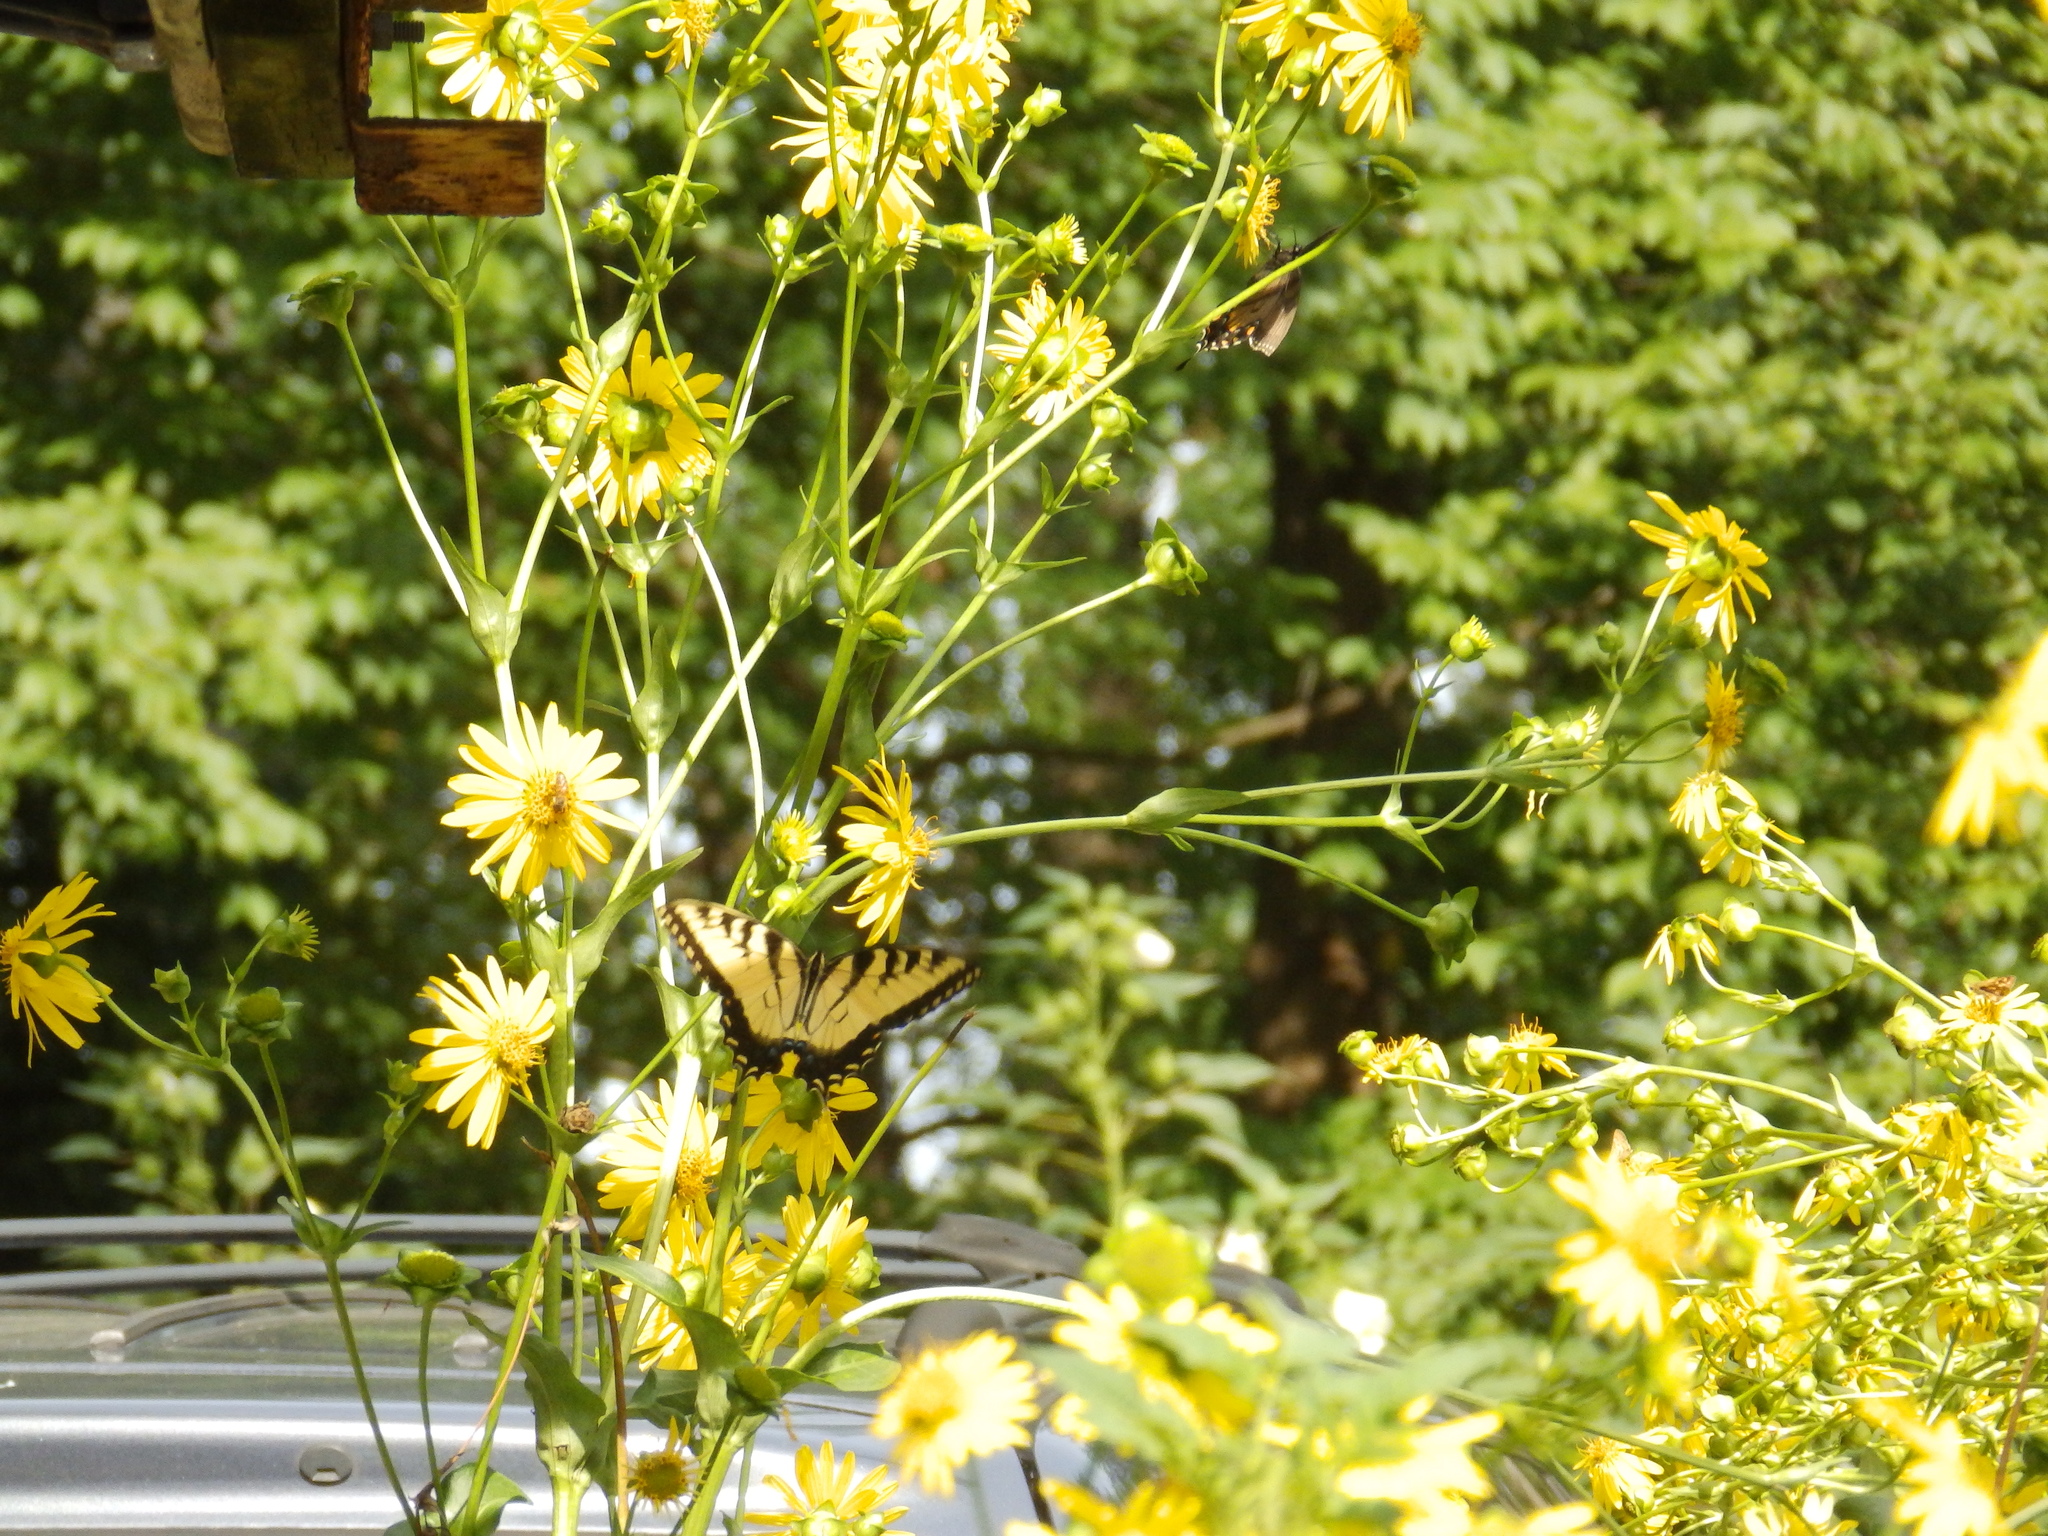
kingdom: Animalia
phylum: Arthropoda
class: Insecta
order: Lepidoptera
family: Papilionidae
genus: Papilio
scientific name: Papilio glaucus
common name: Tiger swallowtail
